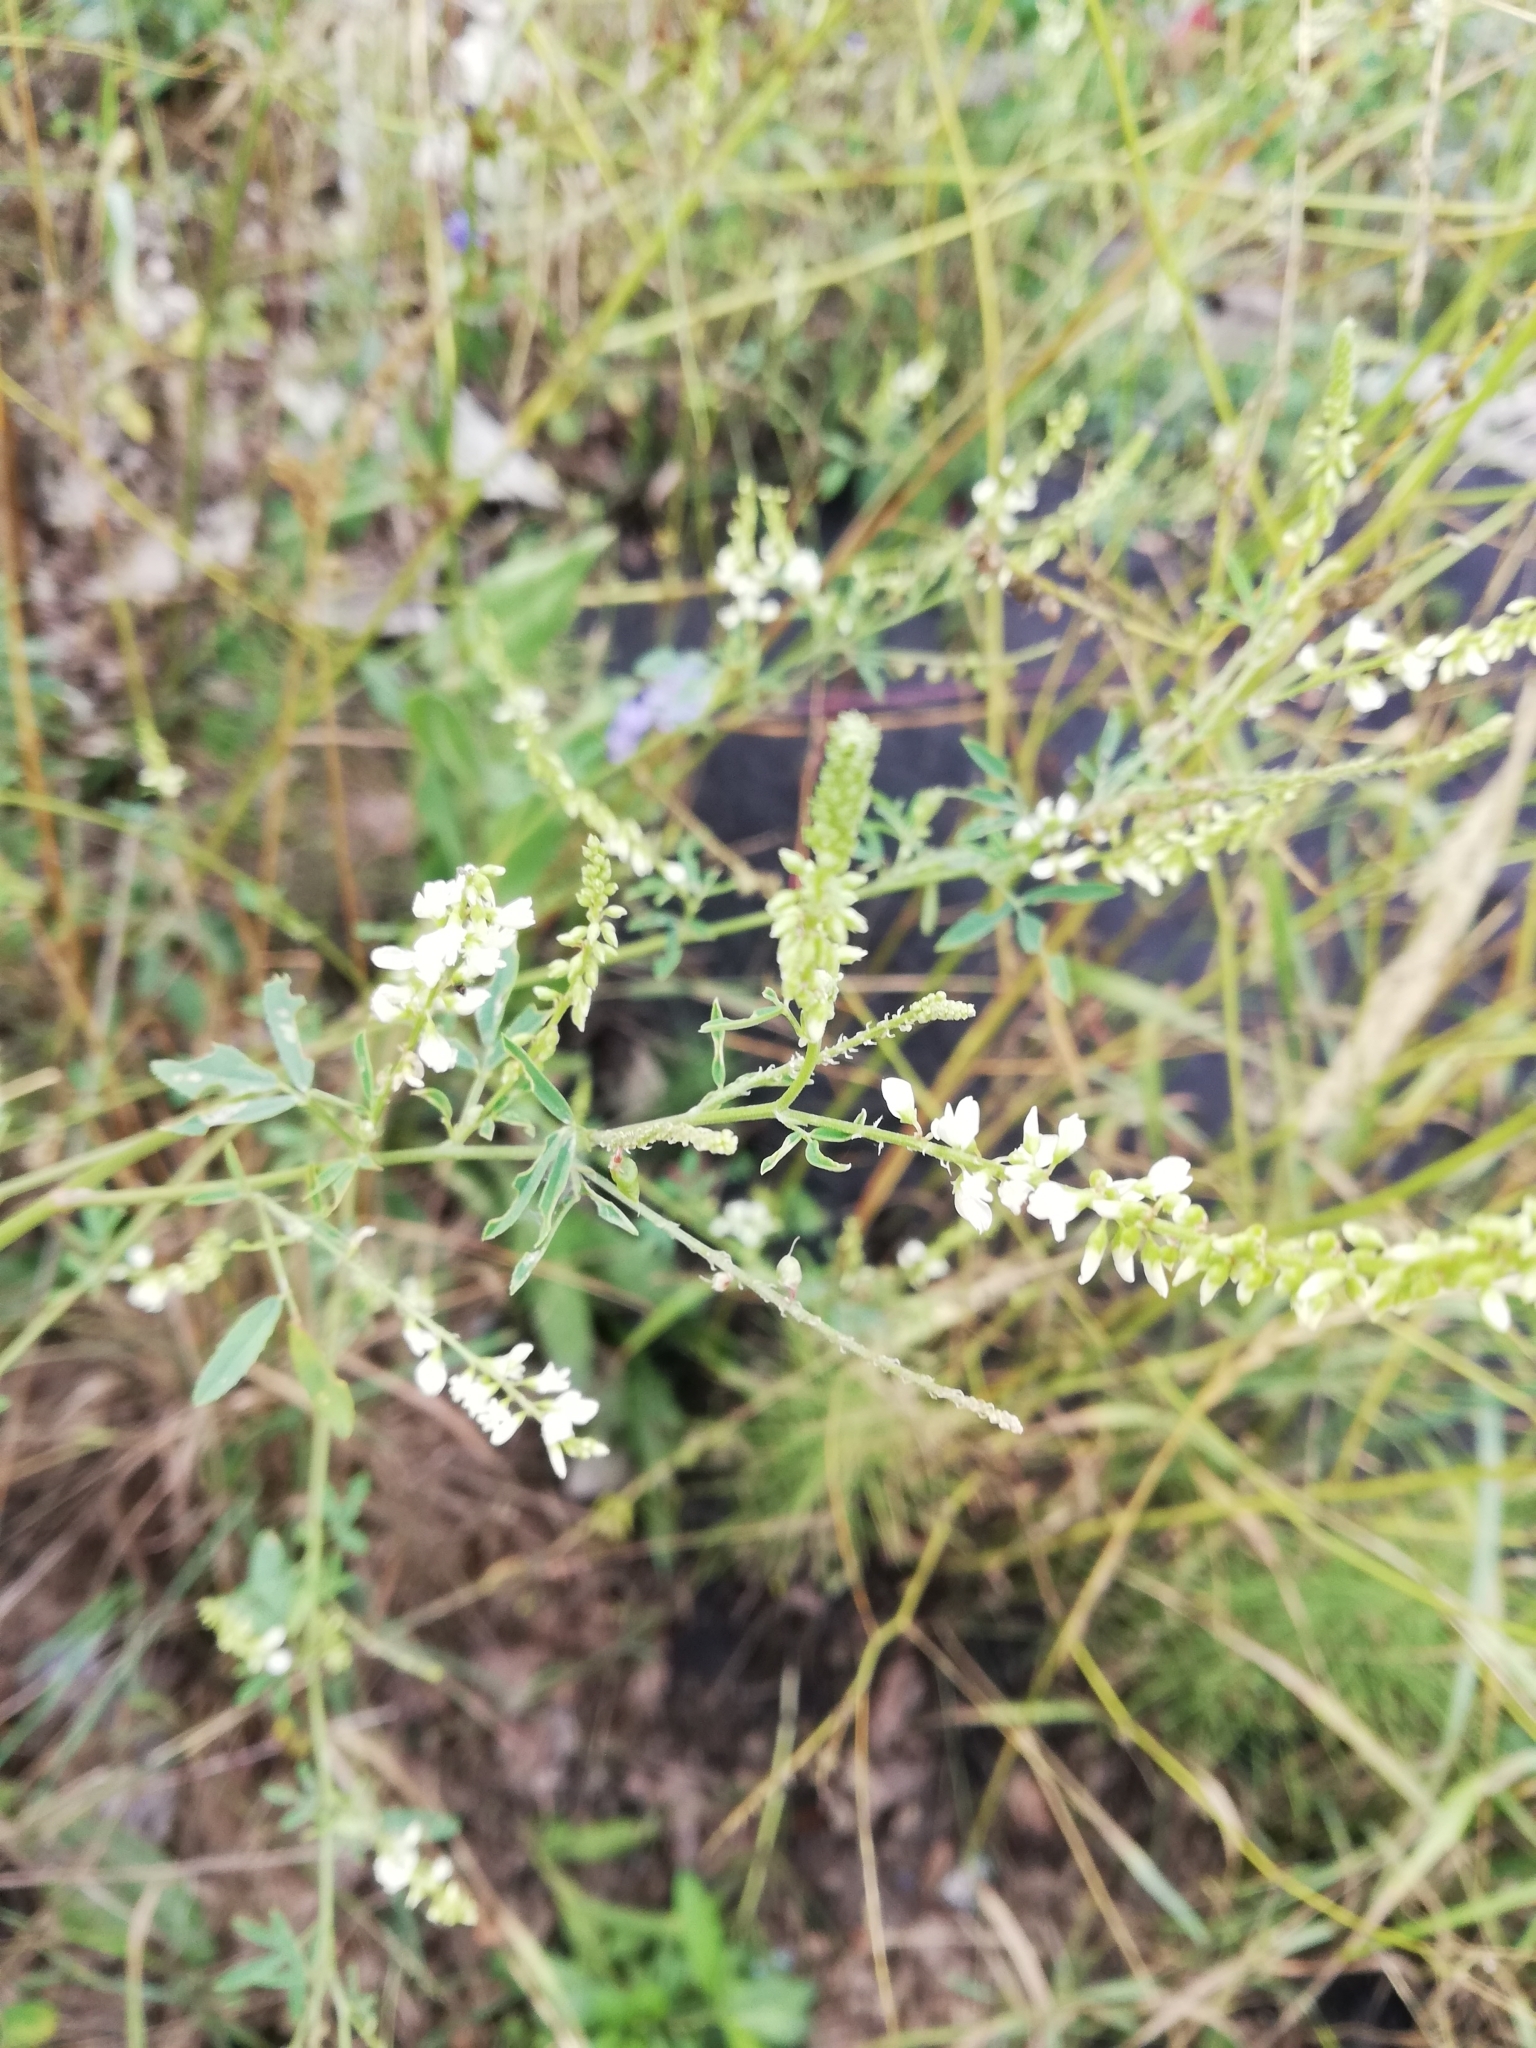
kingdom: Plantae
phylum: Tracheophyta
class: Magnoliopsida
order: Fabales
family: Fabaceae
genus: Melilotus
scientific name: Melilotus albus
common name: White melilot
